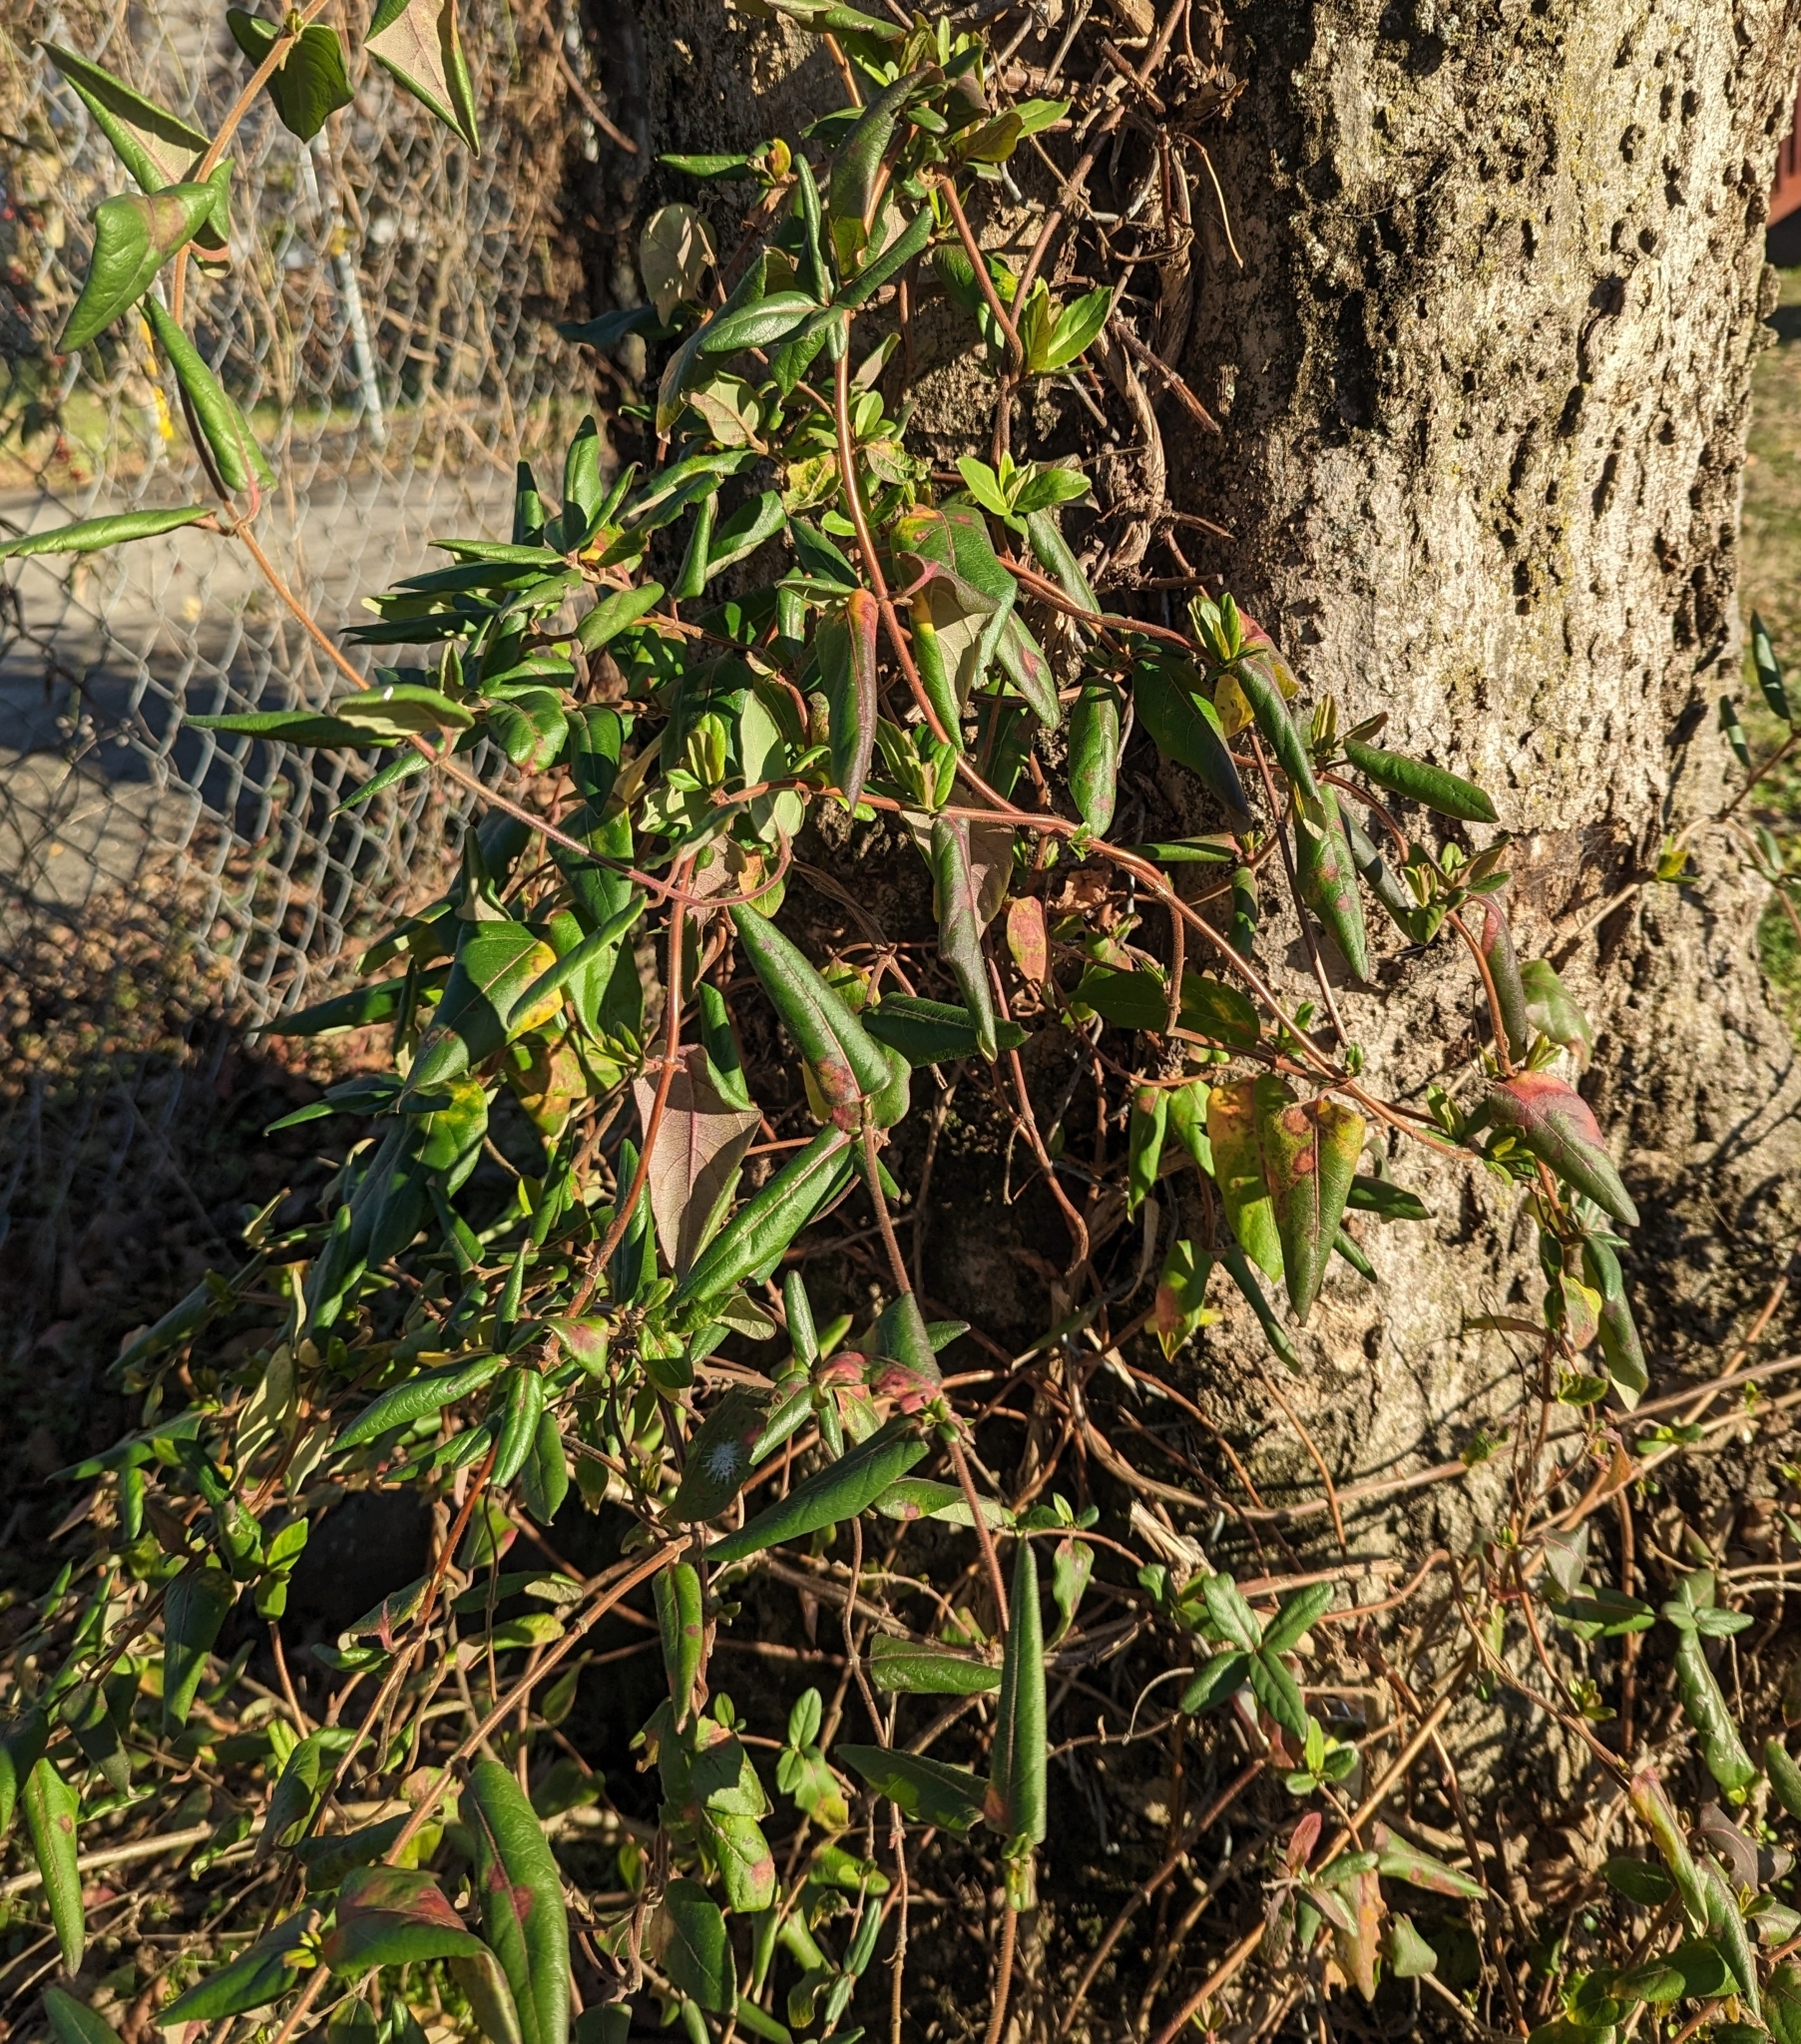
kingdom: Plantae
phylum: Tracheophyta
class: Magnoliopsida
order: Dipsacales
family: Caprifoliaceae
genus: Lonicera
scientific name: Lonicera japonica
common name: Japanese honeysuckle
